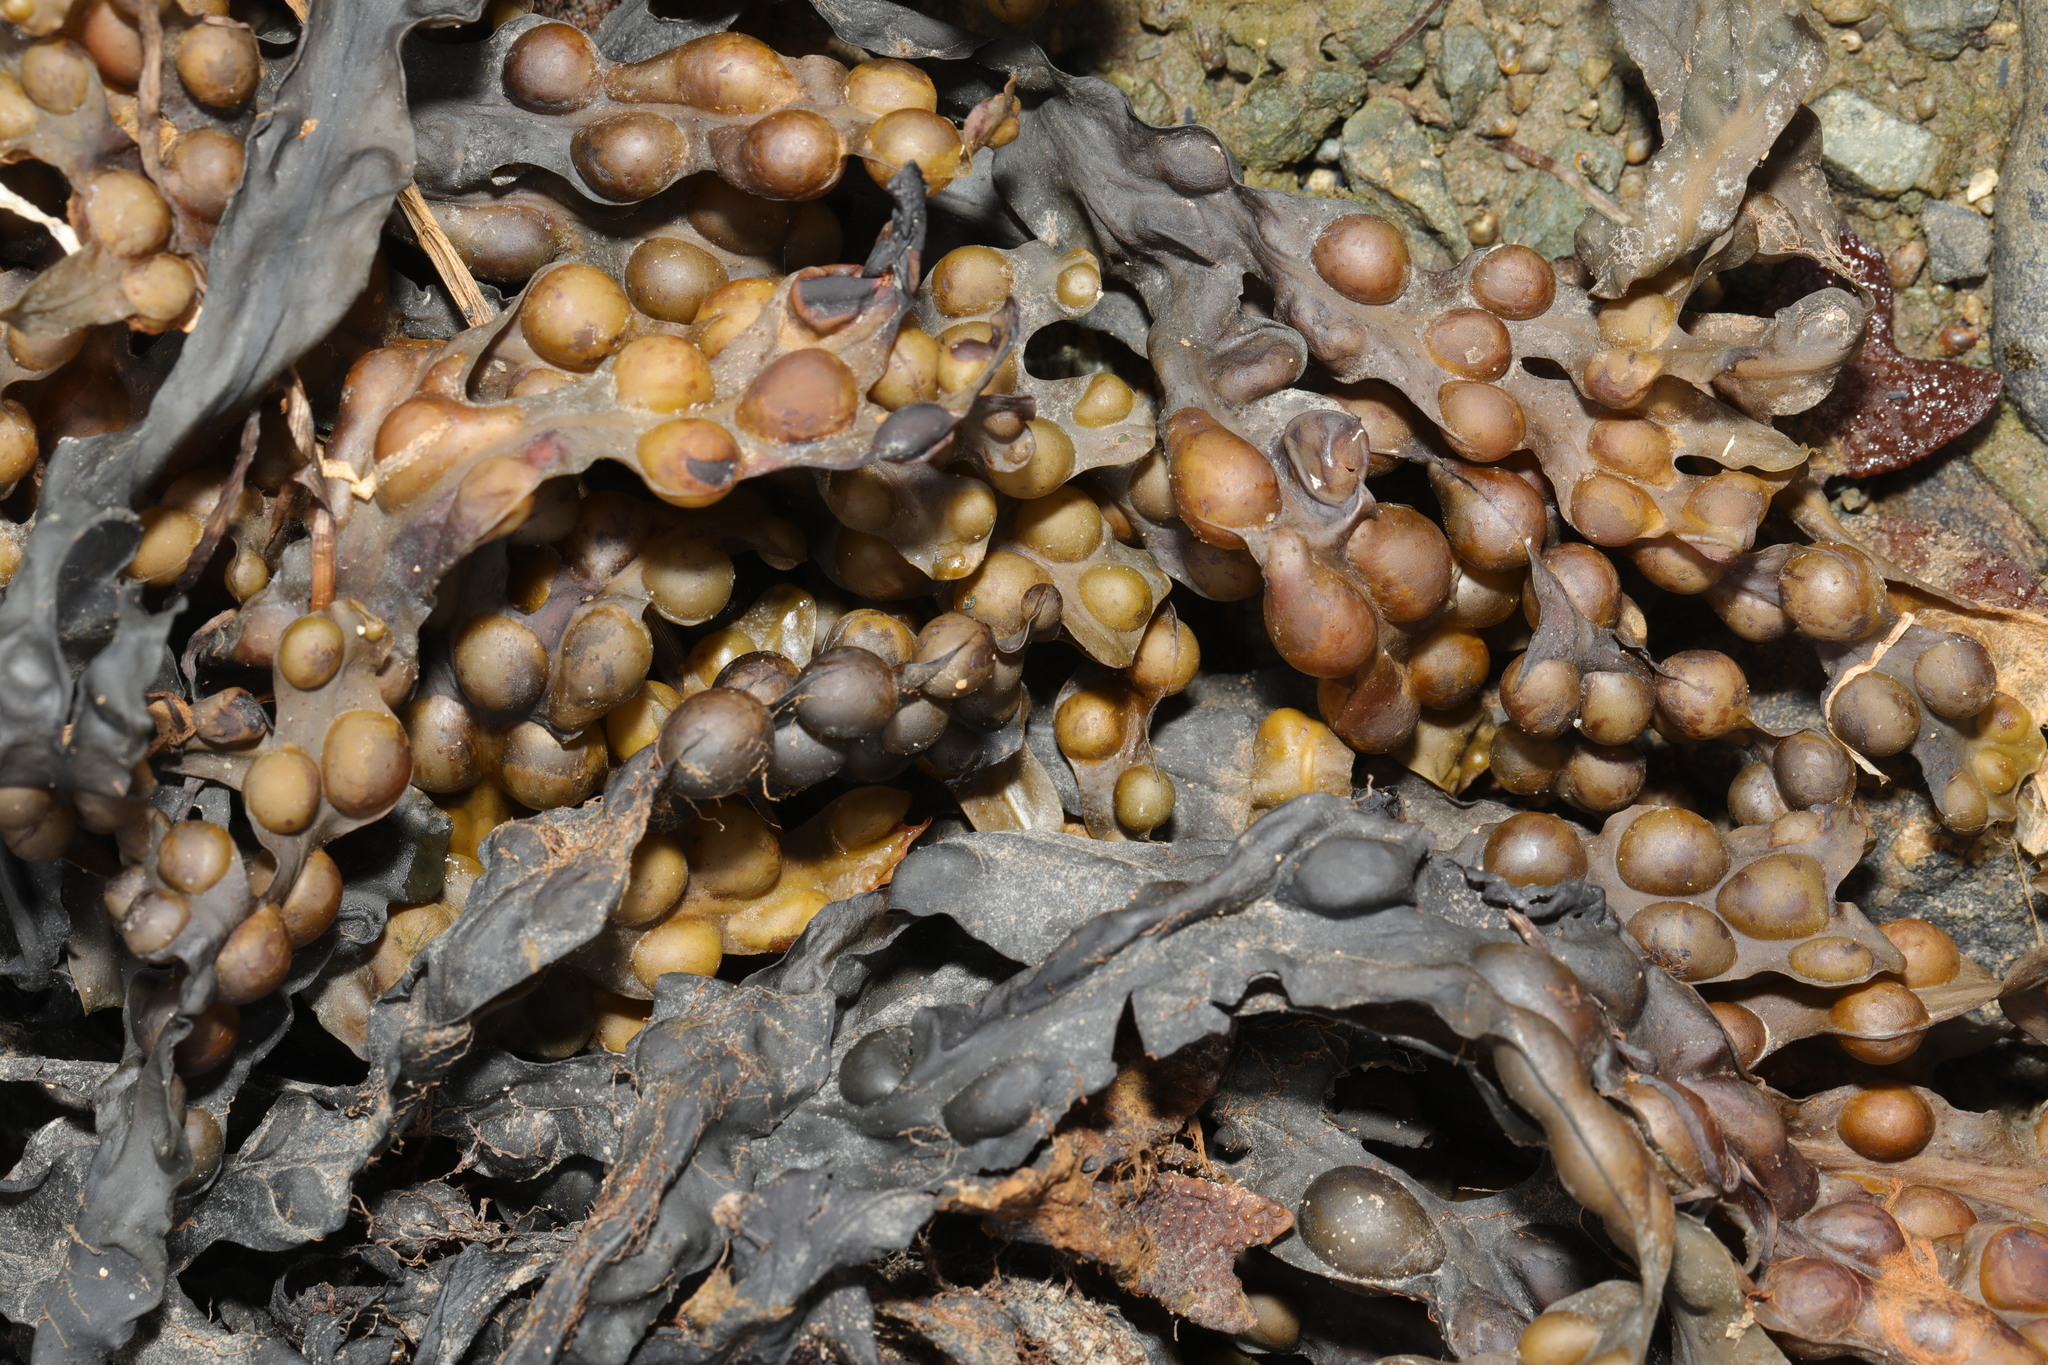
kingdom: Chromista
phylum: Ochrophyta
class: Phaeophyceae
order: Fucales
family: Fucaceae
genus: Fucus
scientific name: Fucus vesiculosus
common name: Bladder wrack
